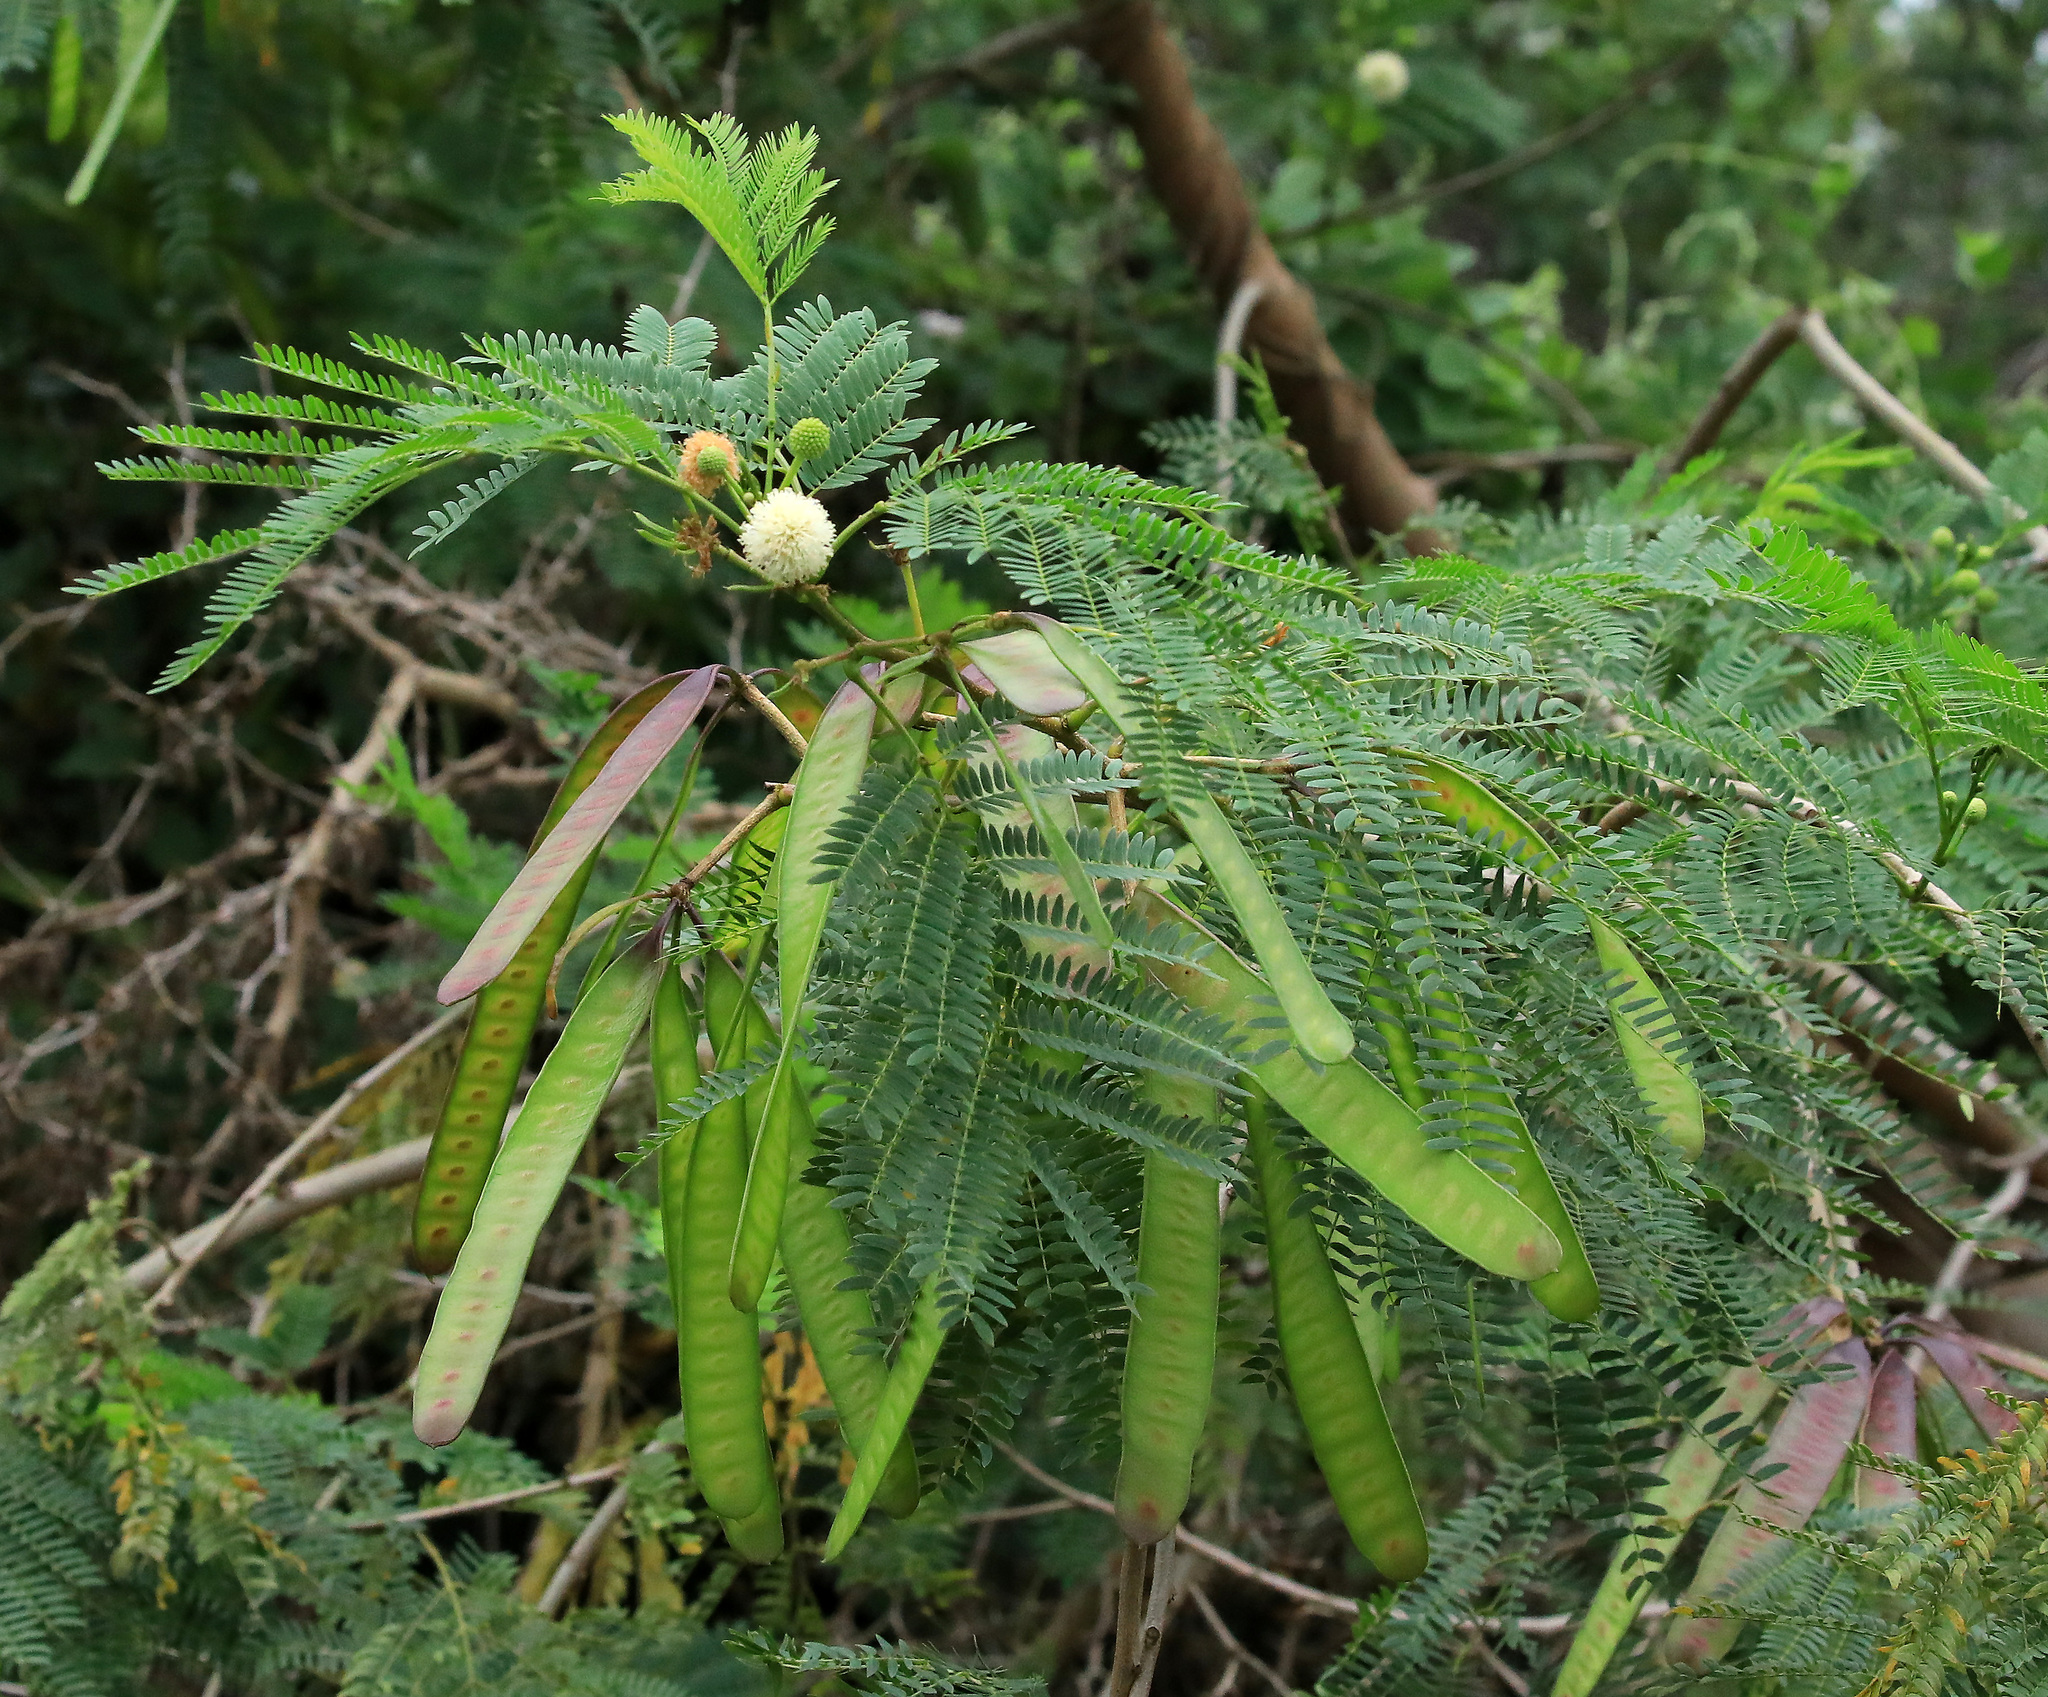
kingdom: Plantae
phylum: Tracheophyta
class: Magnoliopsida
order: Fabales
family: Fabaceae
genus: Leucaena
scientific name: Leucaena leucocephala
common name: White leadtree
